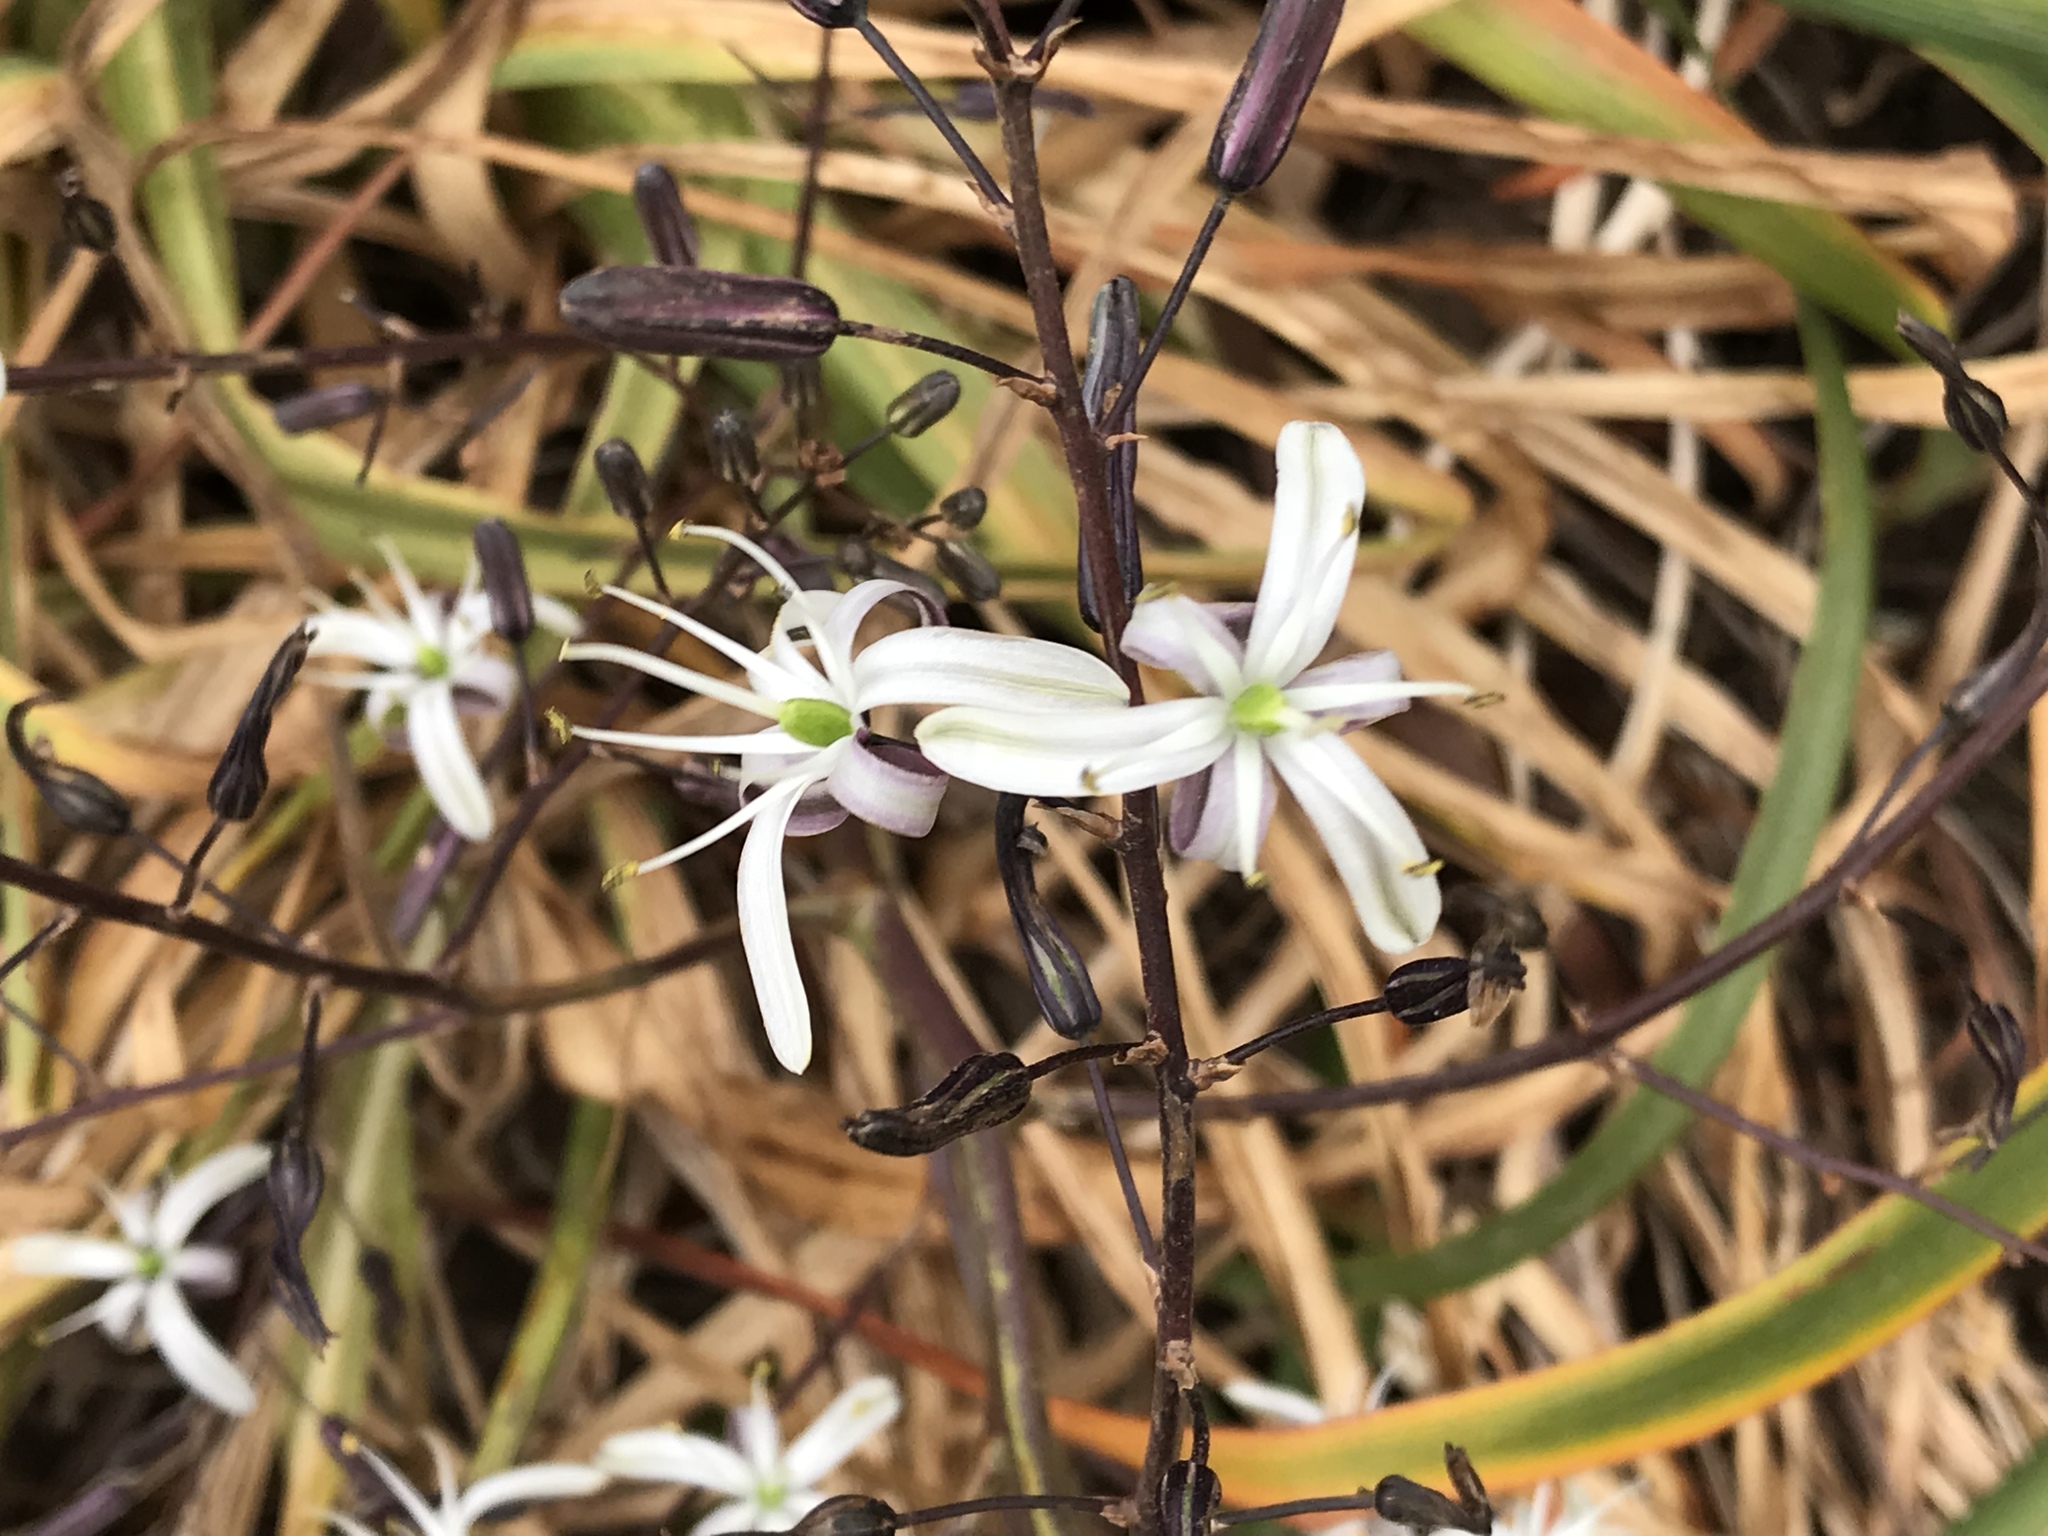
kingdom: Plantae
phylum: Tracheophyta
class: Liliopsida
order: Asparagales
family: Asparagaceae
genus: Chlorogalum
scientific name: Chlorogalum pomeridianum
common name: Amole
